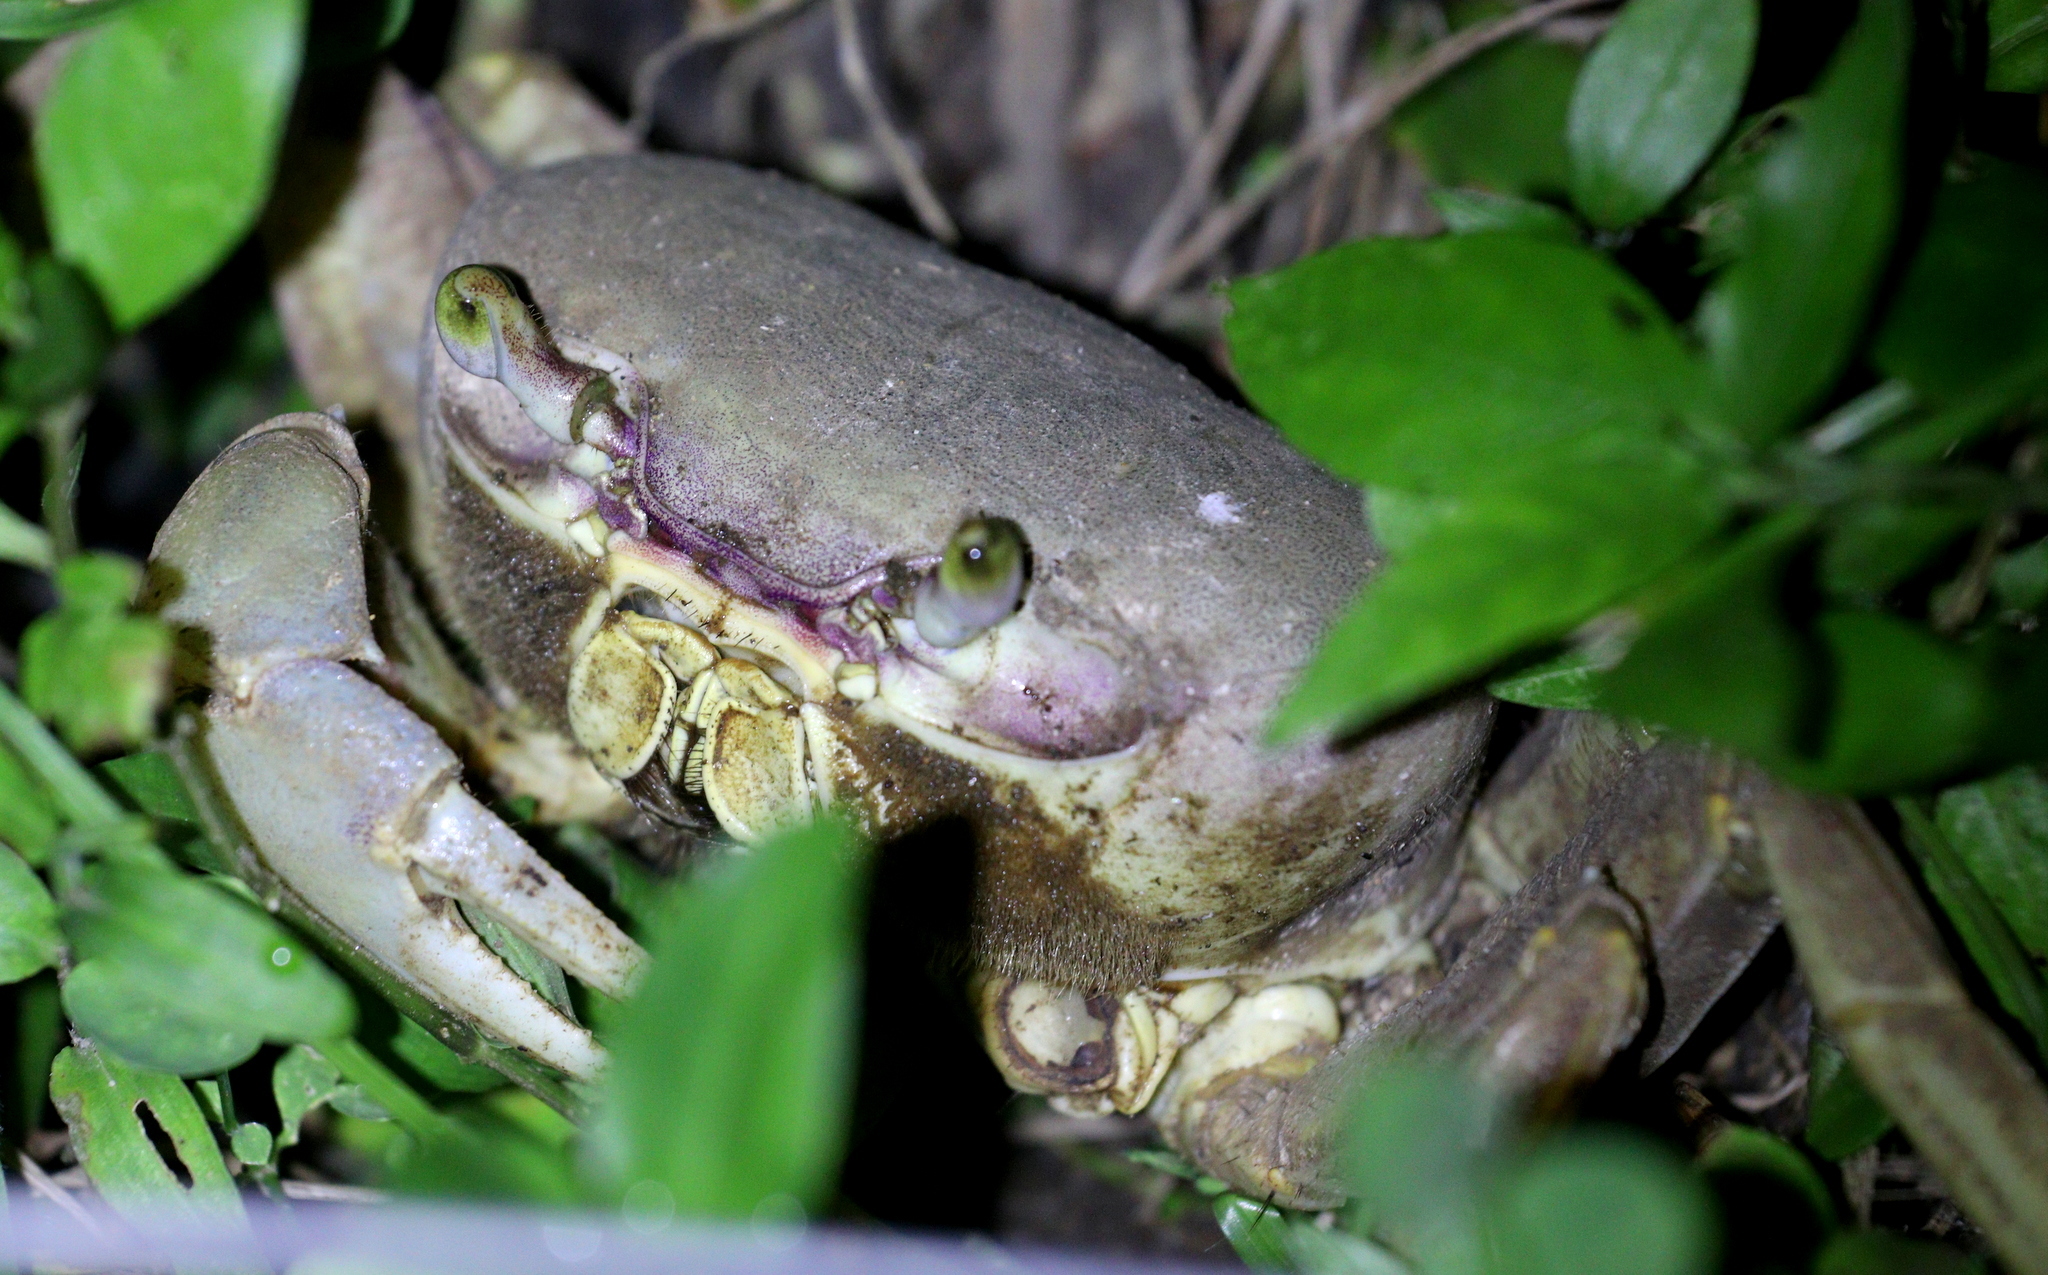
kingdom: Animalia
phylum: Arthropoda
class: Malacostraca
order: Decapoda
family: Gecarcinidae
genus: Cardisoma
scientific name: Cardisoma guanhumi
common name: Great land crab
